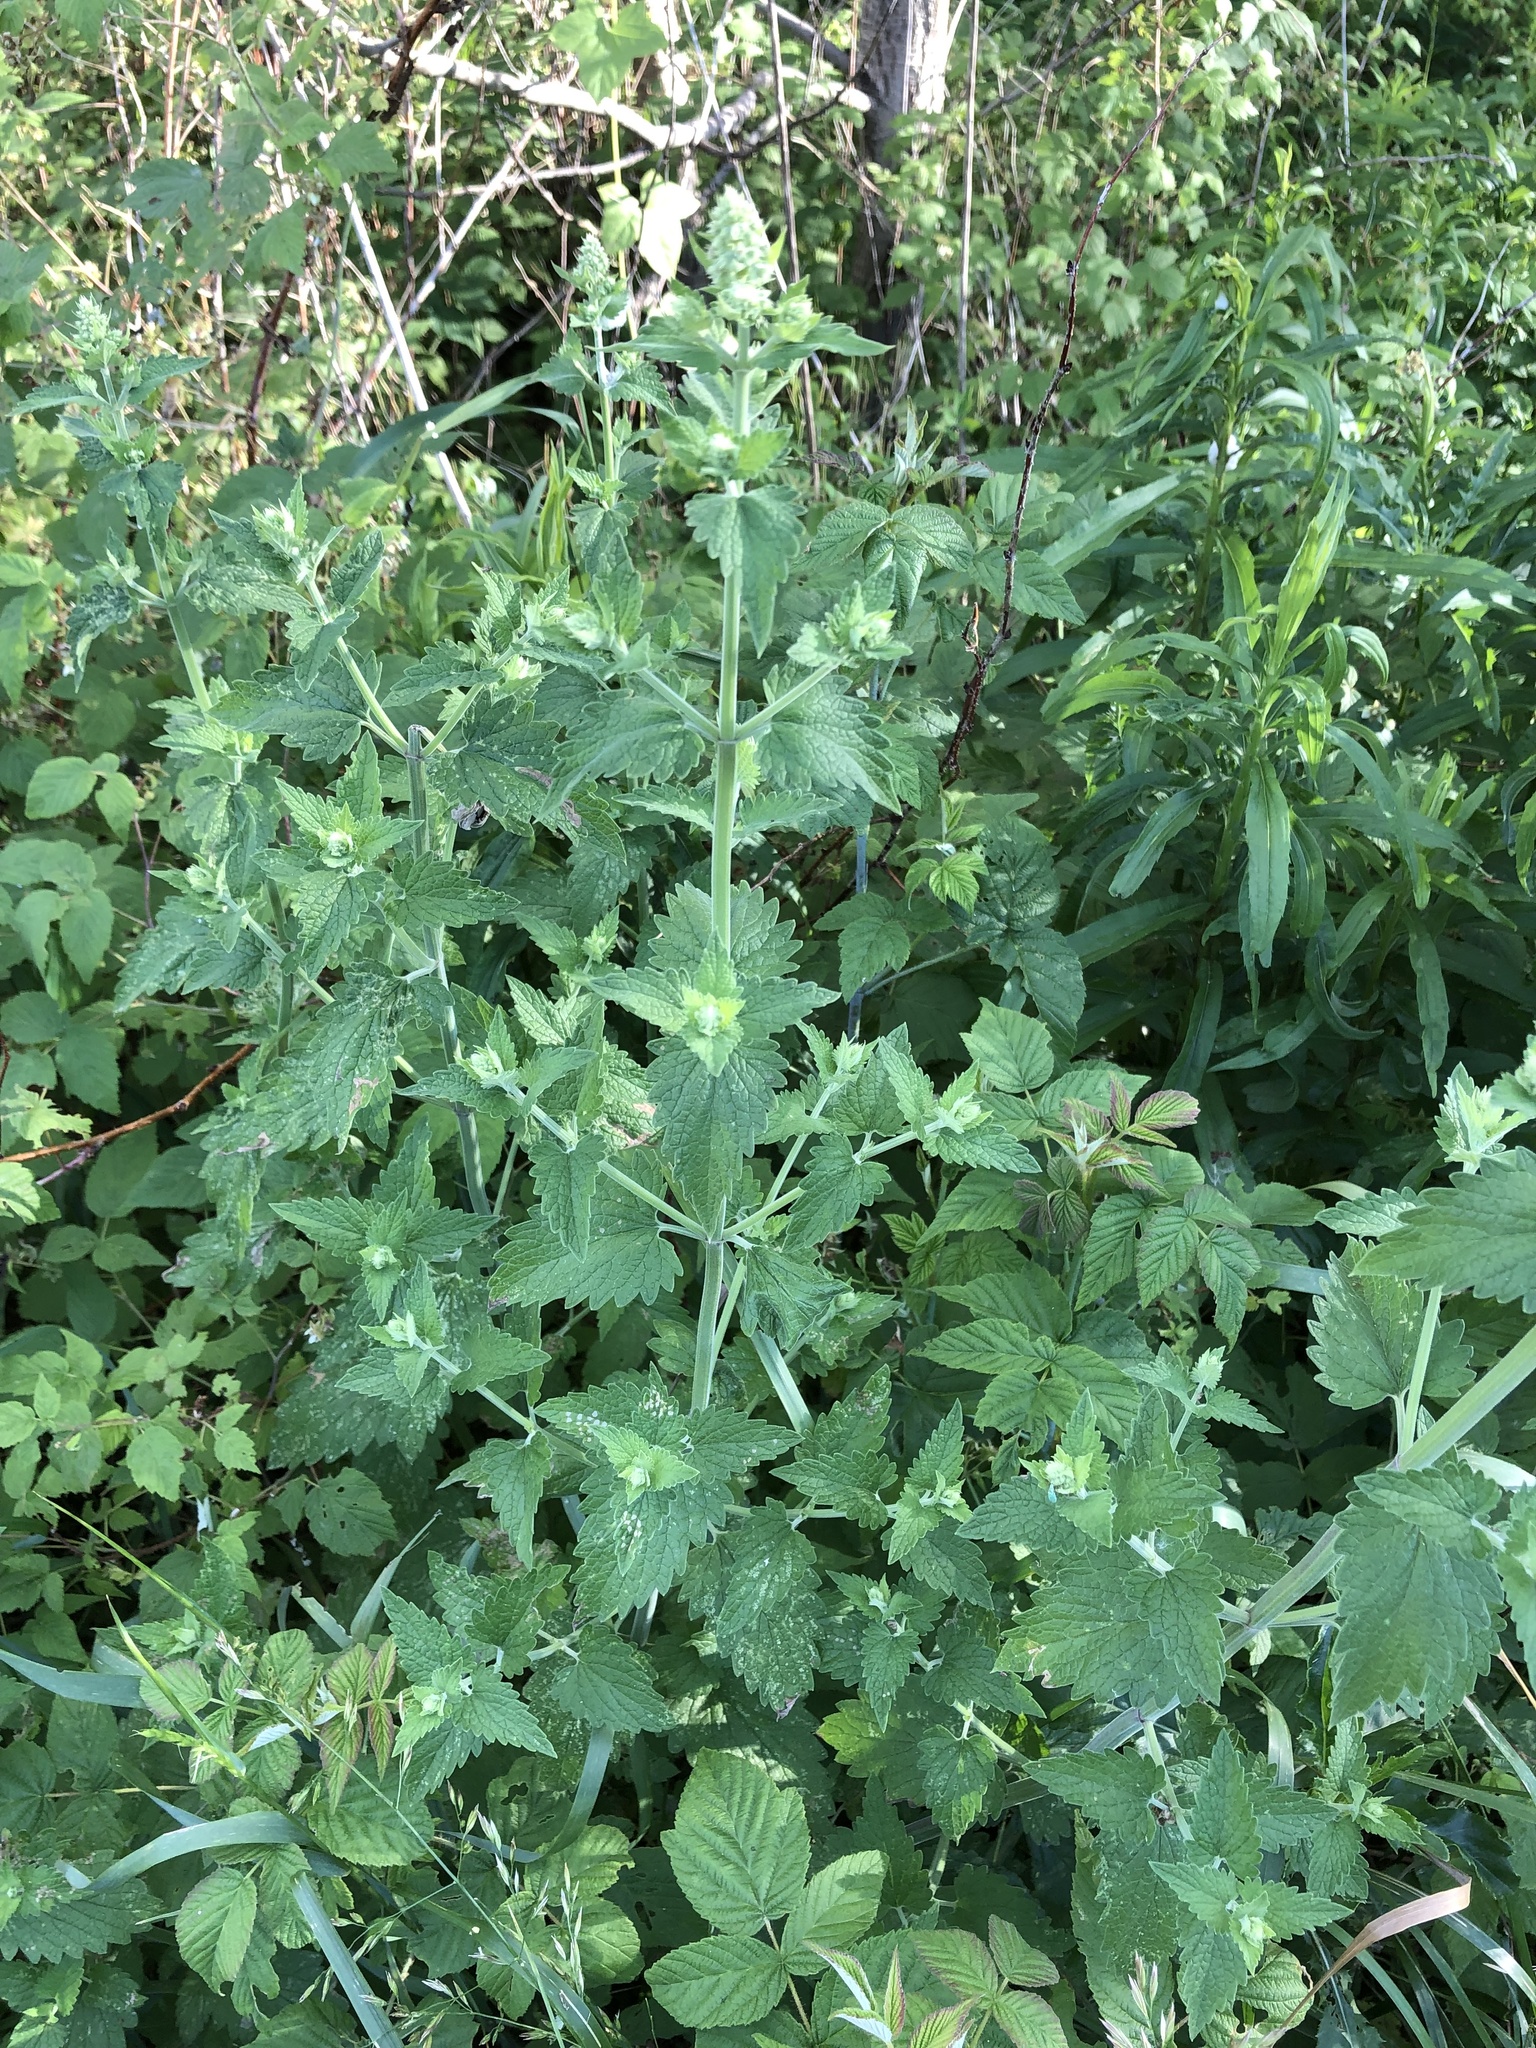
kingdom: Plantae
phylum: Tracheophyta
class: Magnoliopsida
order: Lamiales
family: Lamiaceae
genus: Nepeta
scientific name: Nepeta cataria
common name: Catnip
